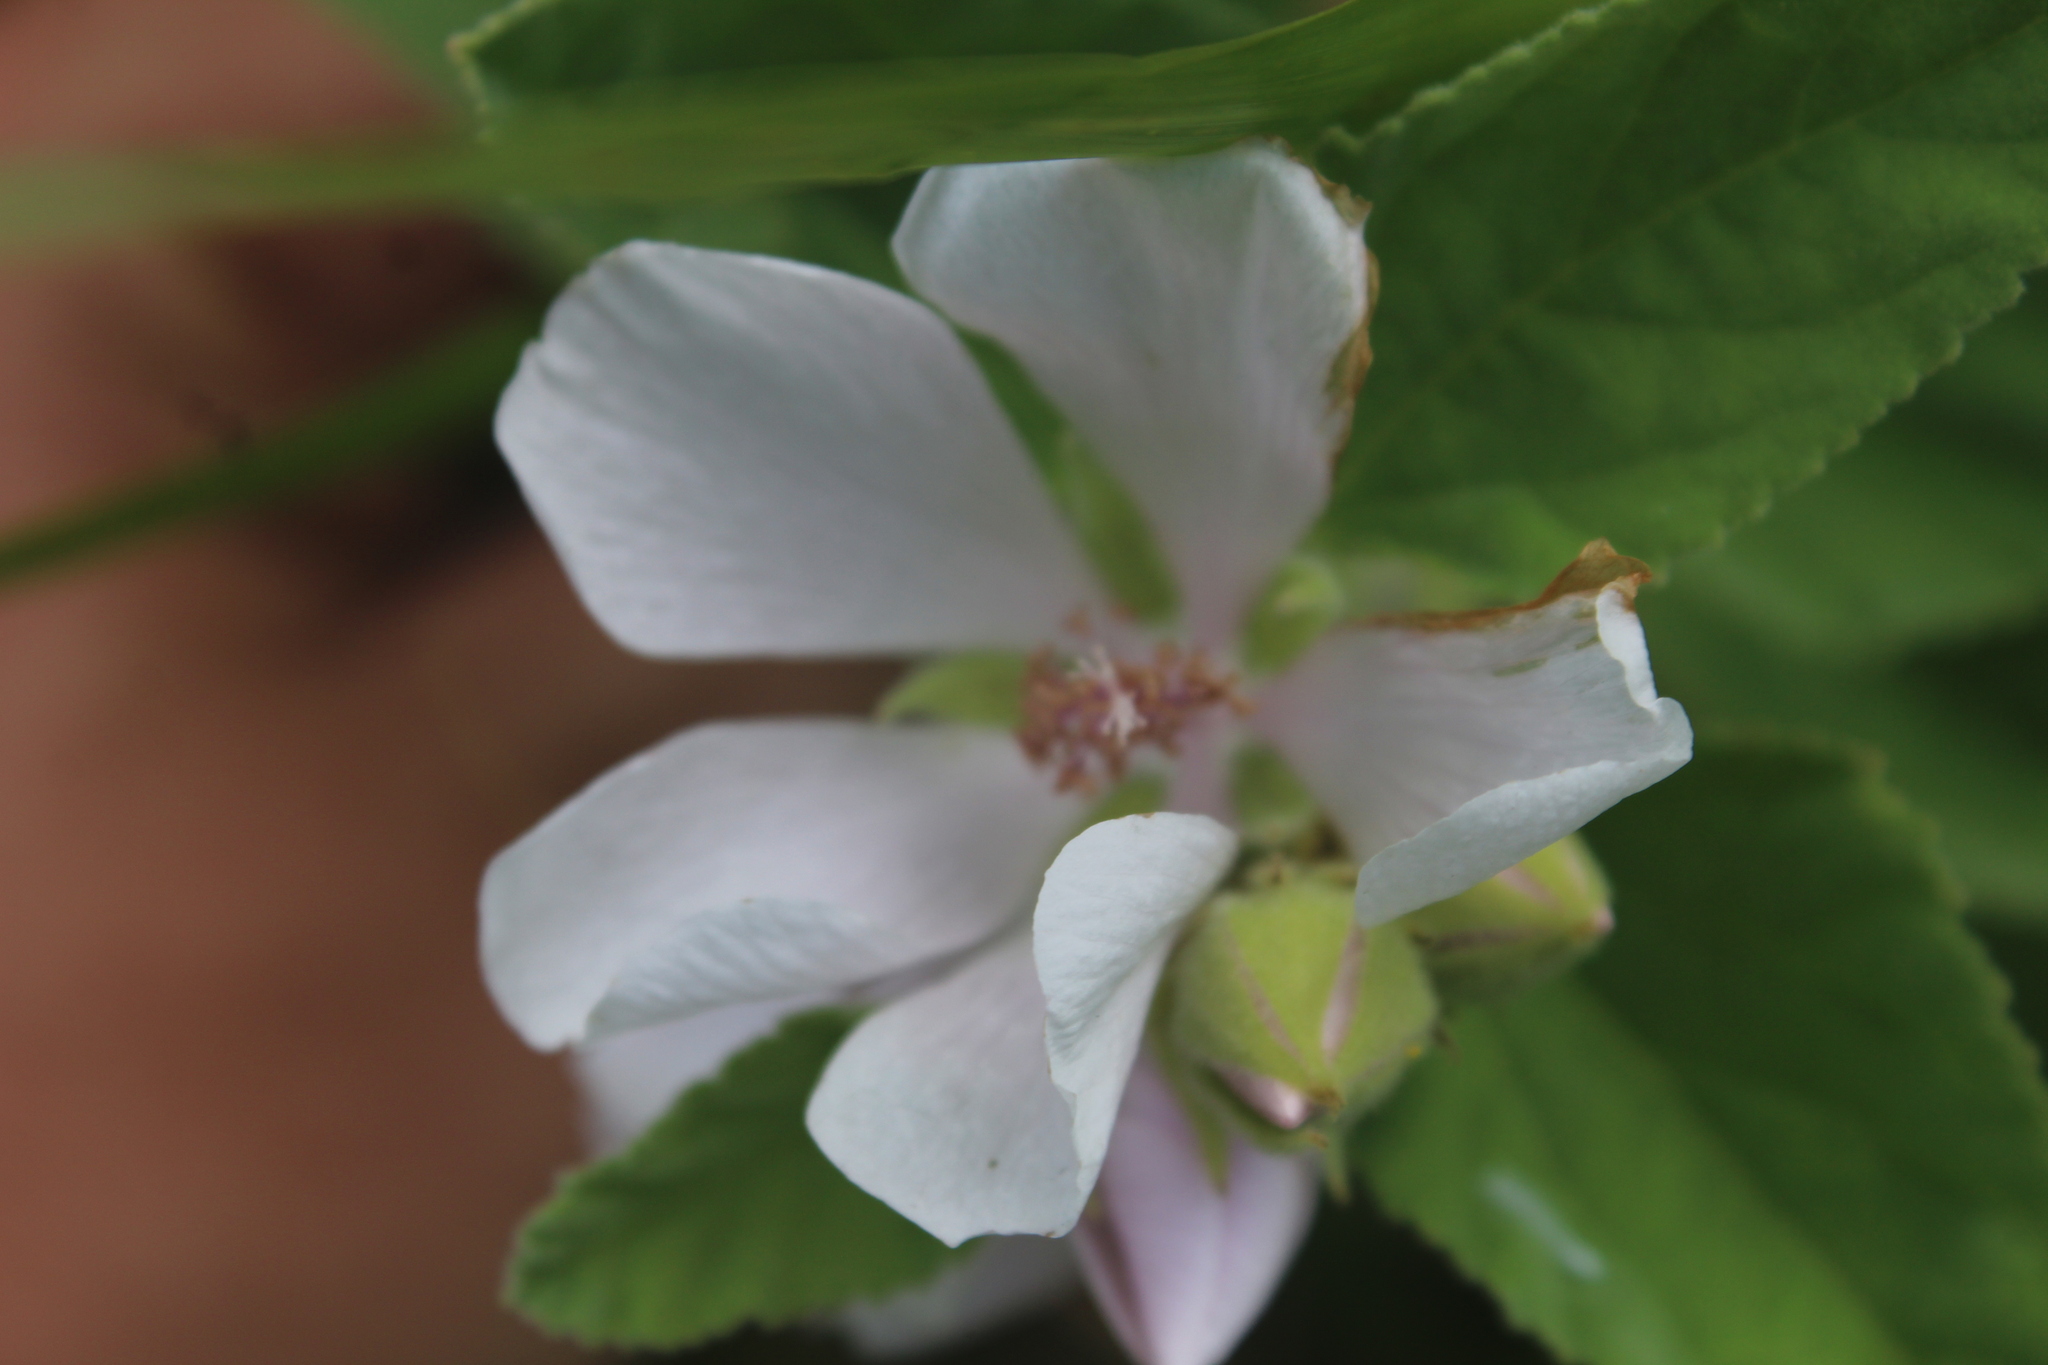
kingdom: Plantae
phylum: Tracheophyta
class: Magnoliopsida
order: Malvales
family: Malvaceae
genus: Althaea
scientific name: Althaea officinalis
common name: Marsh-mallow
